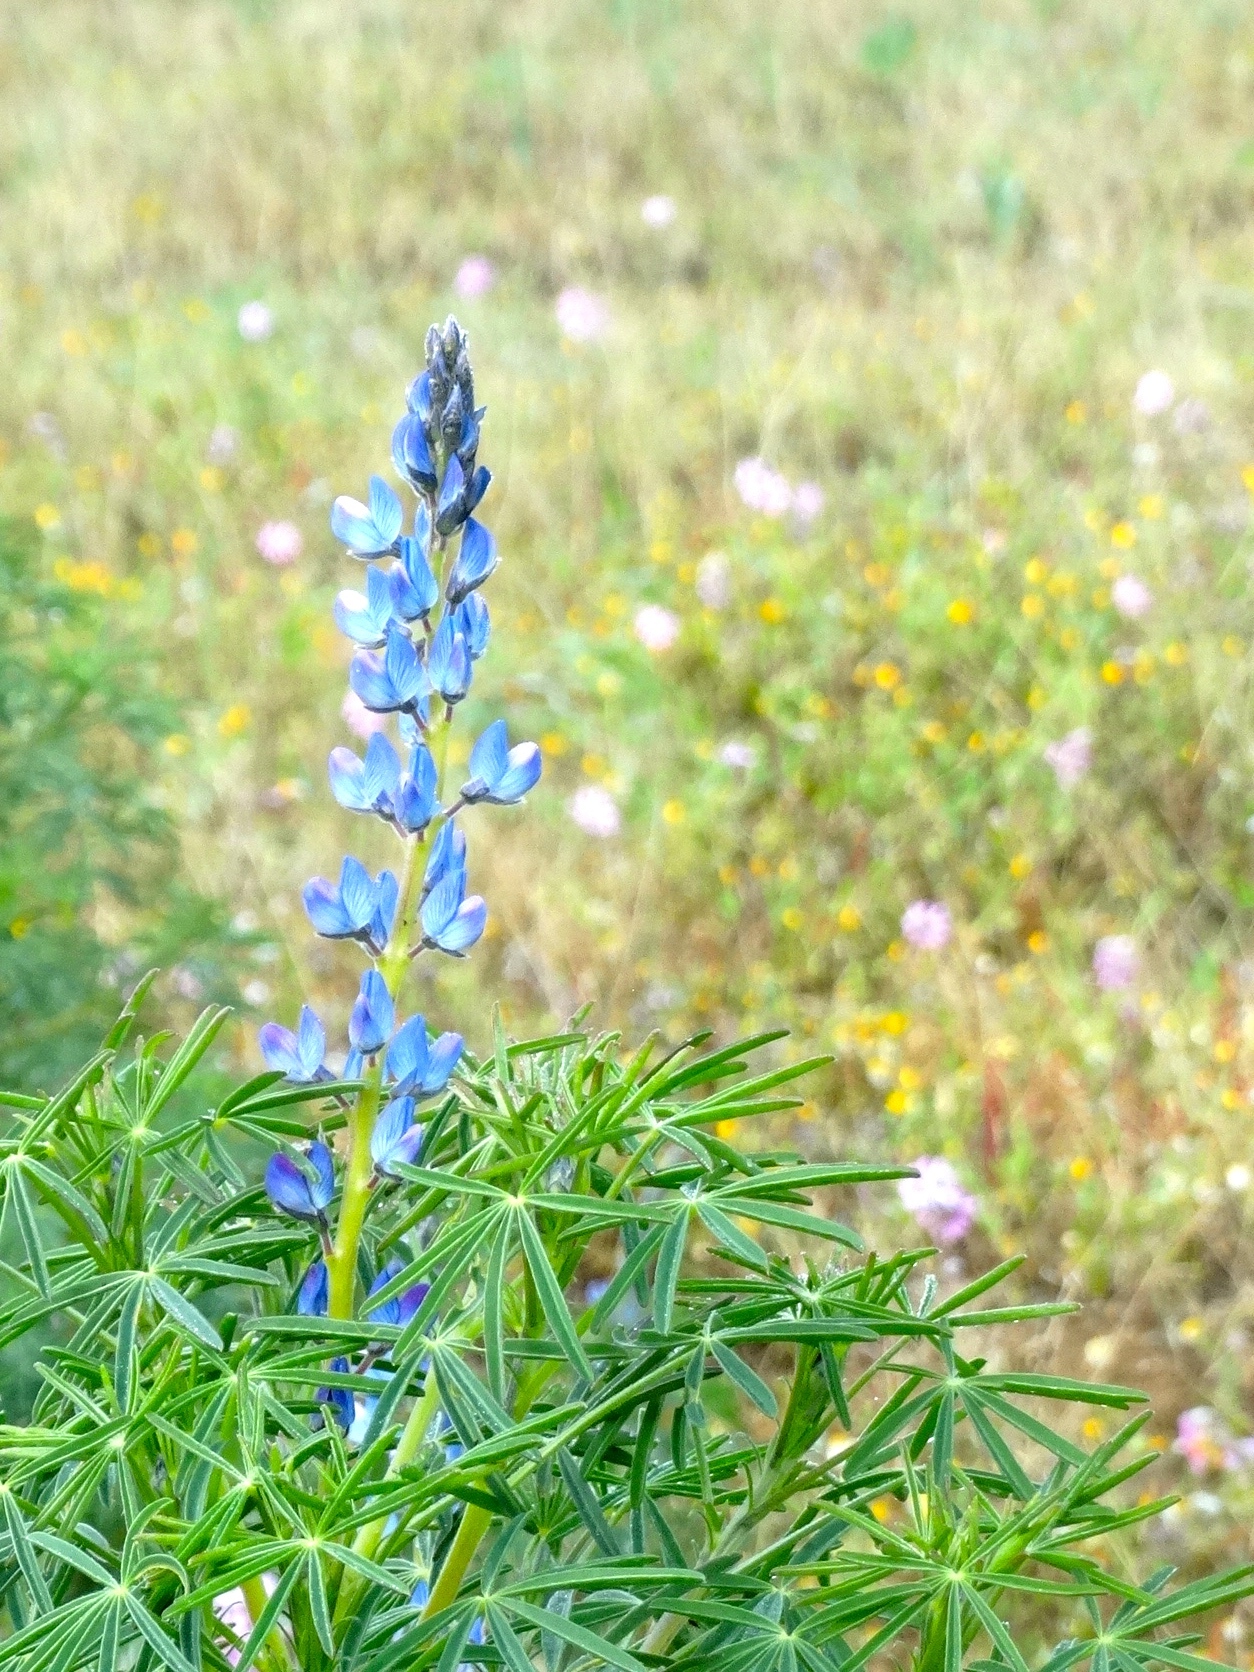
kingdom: Plantae
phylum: Tracheophyta
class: Magnoliopsida
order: Fabales
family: Fabaceae
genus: Lupinus
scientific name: Lupinus angustifolius
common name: Narrow-leaved lupin
